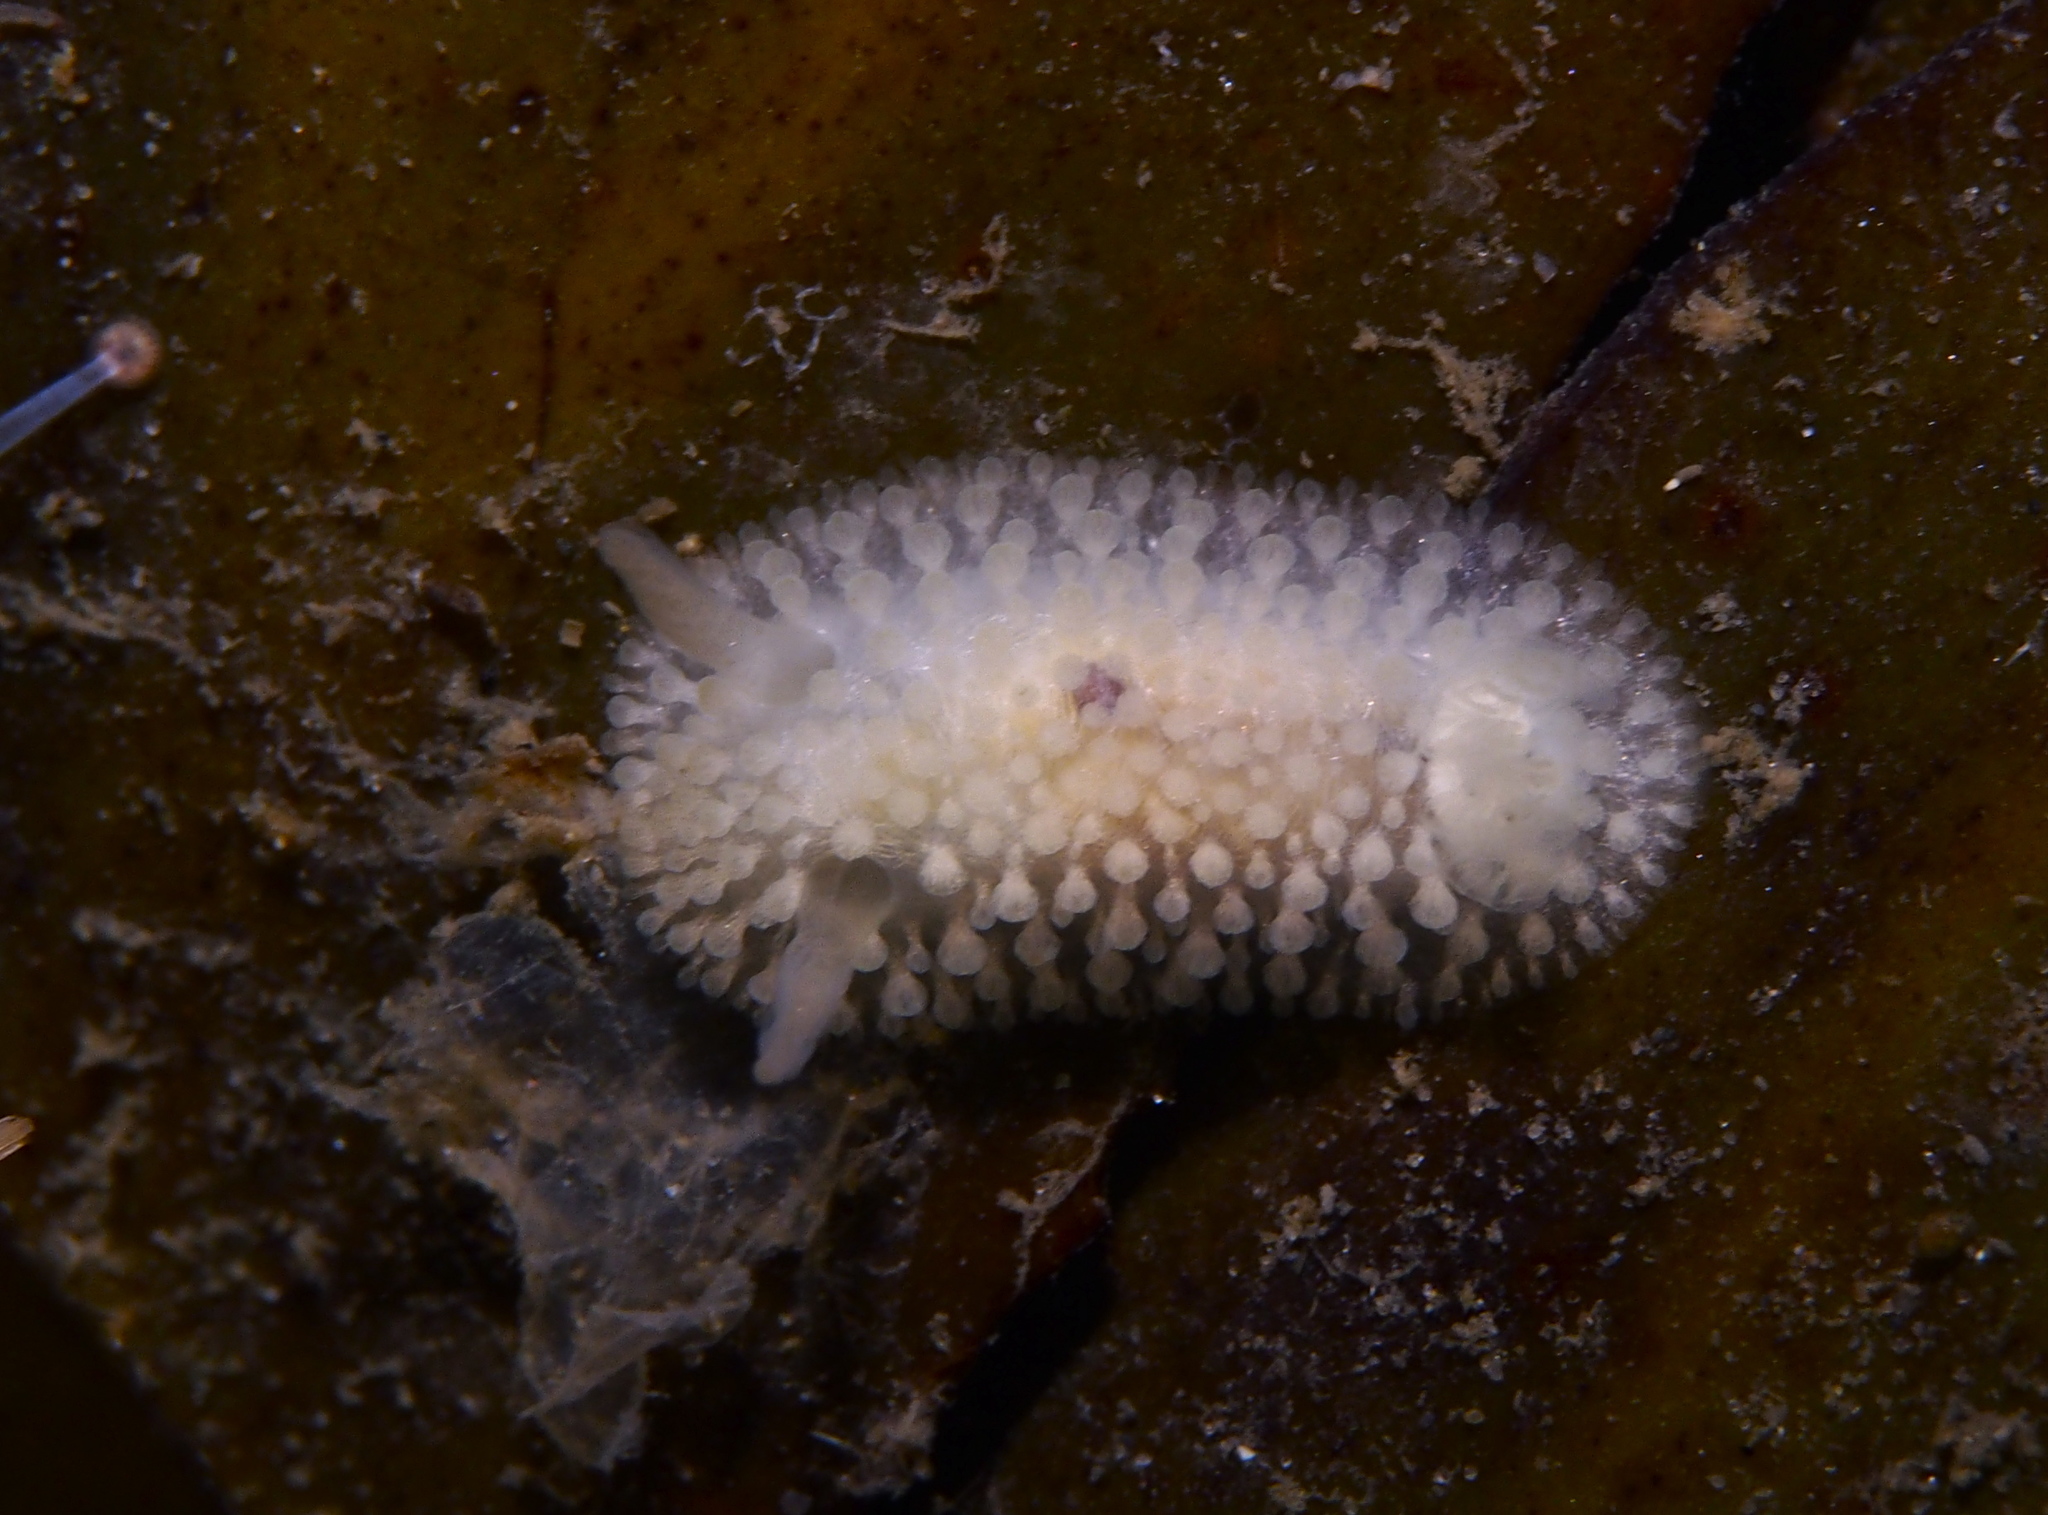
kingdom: Animalia
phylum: Mollusca
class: Gastropoda
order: Nudibranchia
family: Onchidorididae
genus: Onchidoris
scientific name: Onchidoris muricata
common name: Rough doris
